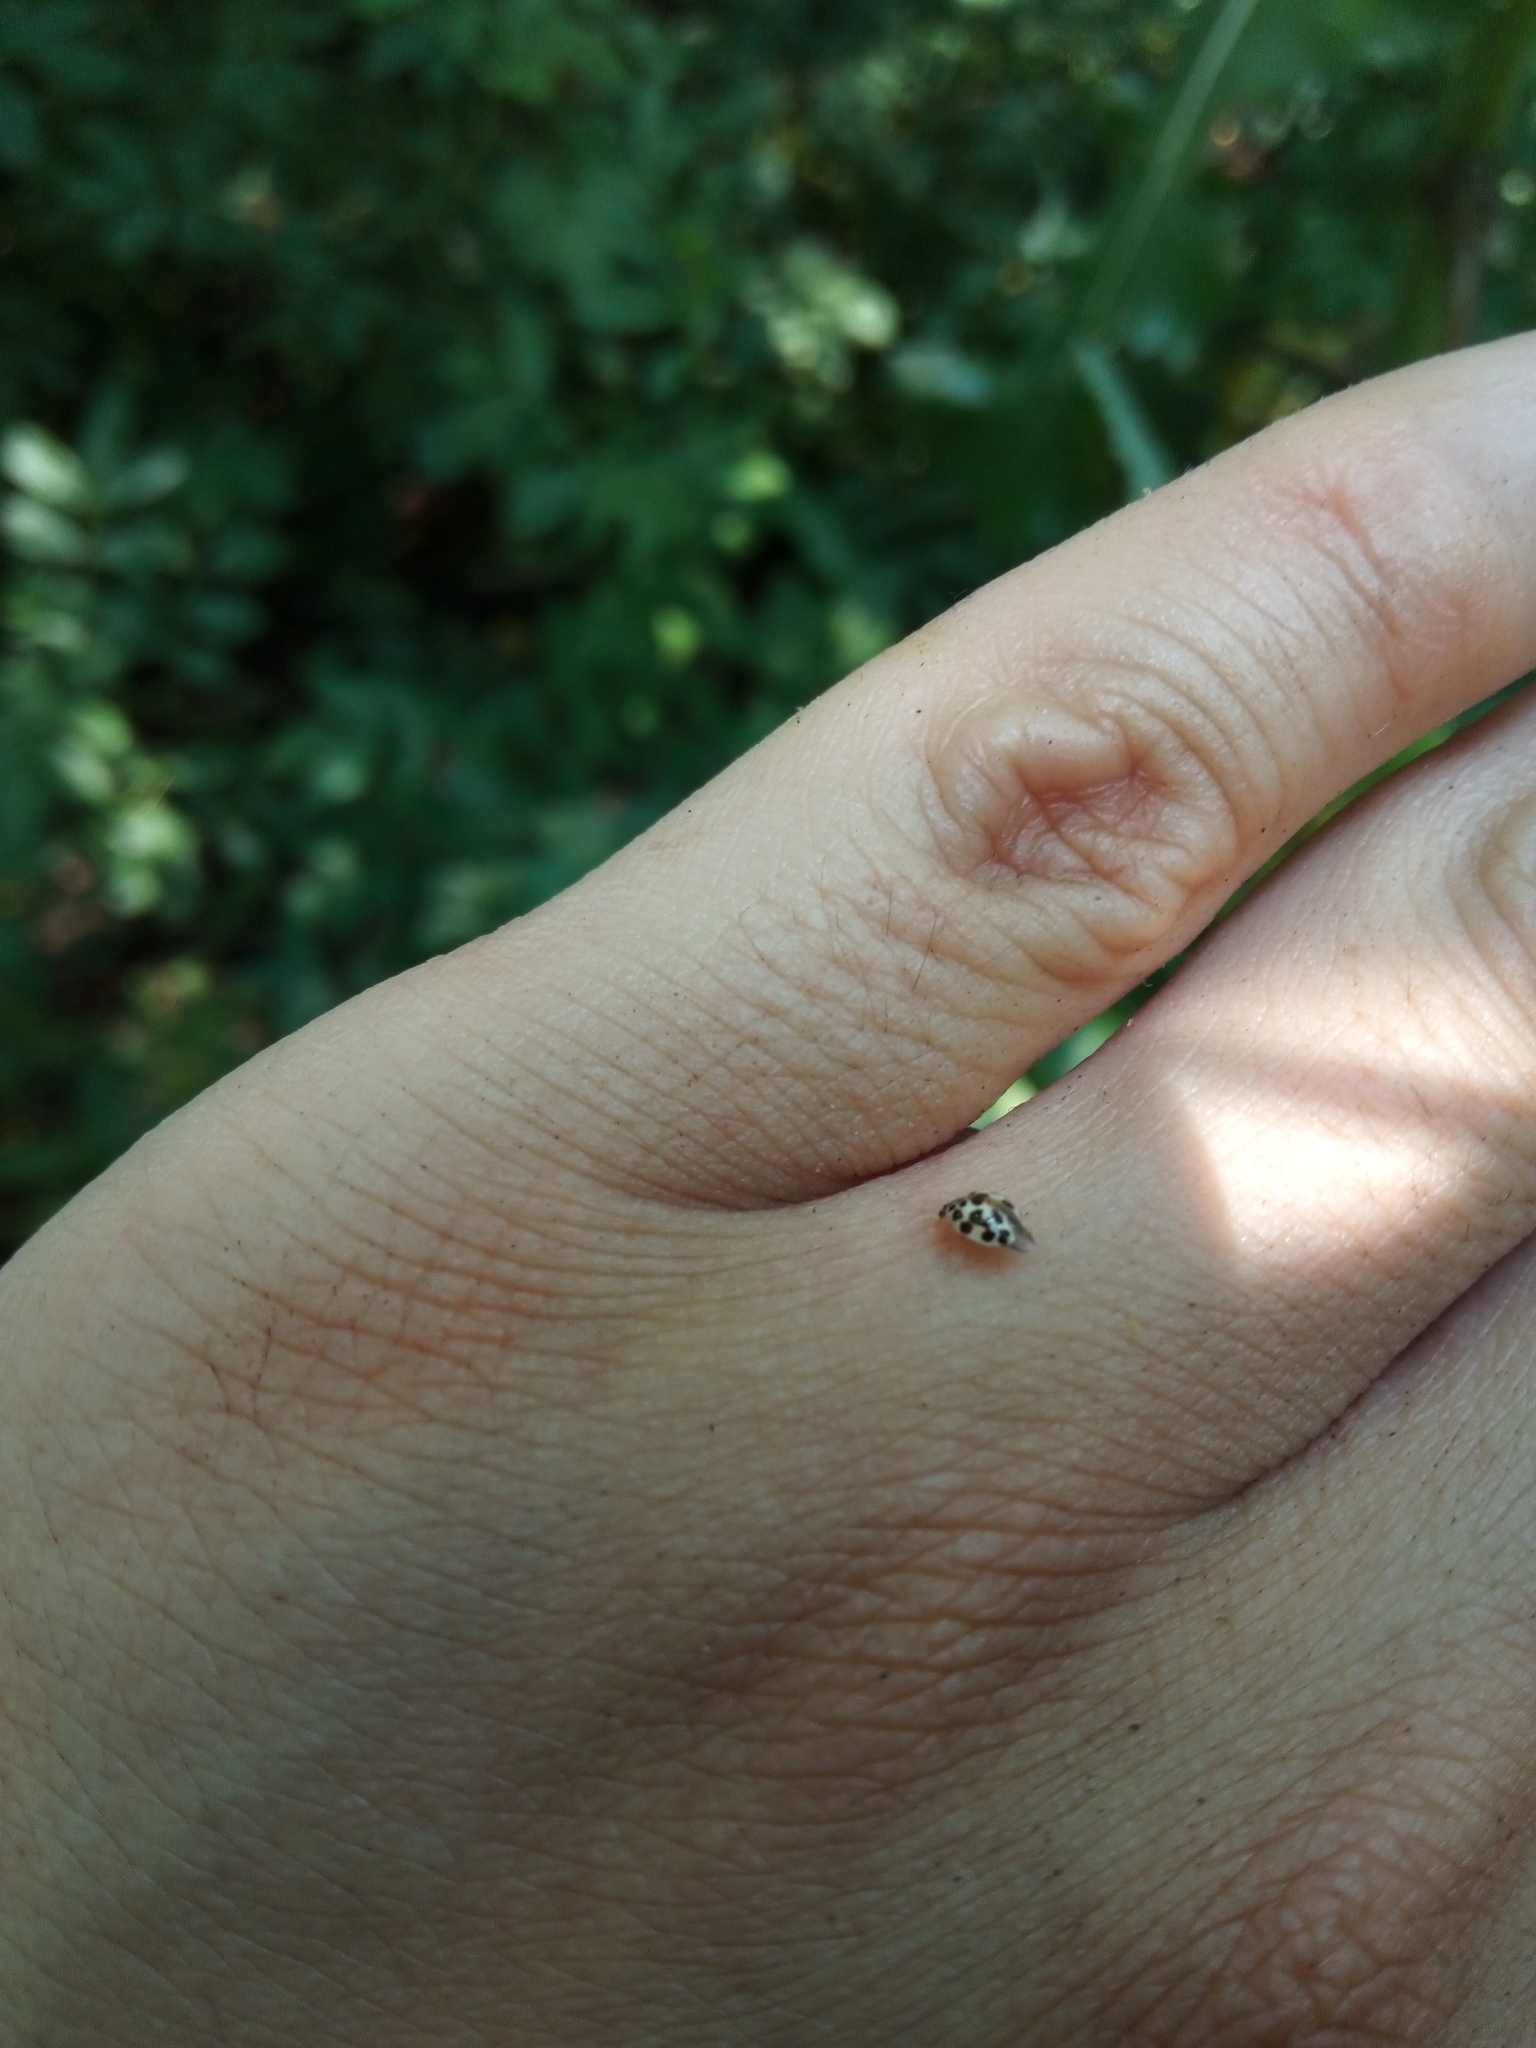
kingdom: Animalia
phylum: Arthropoda
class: Insecta
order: Coleoptera
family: Coccinellidae
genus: Psyllobora
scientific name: Psyllobora vigintimaculata
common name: Ladybird beetle
